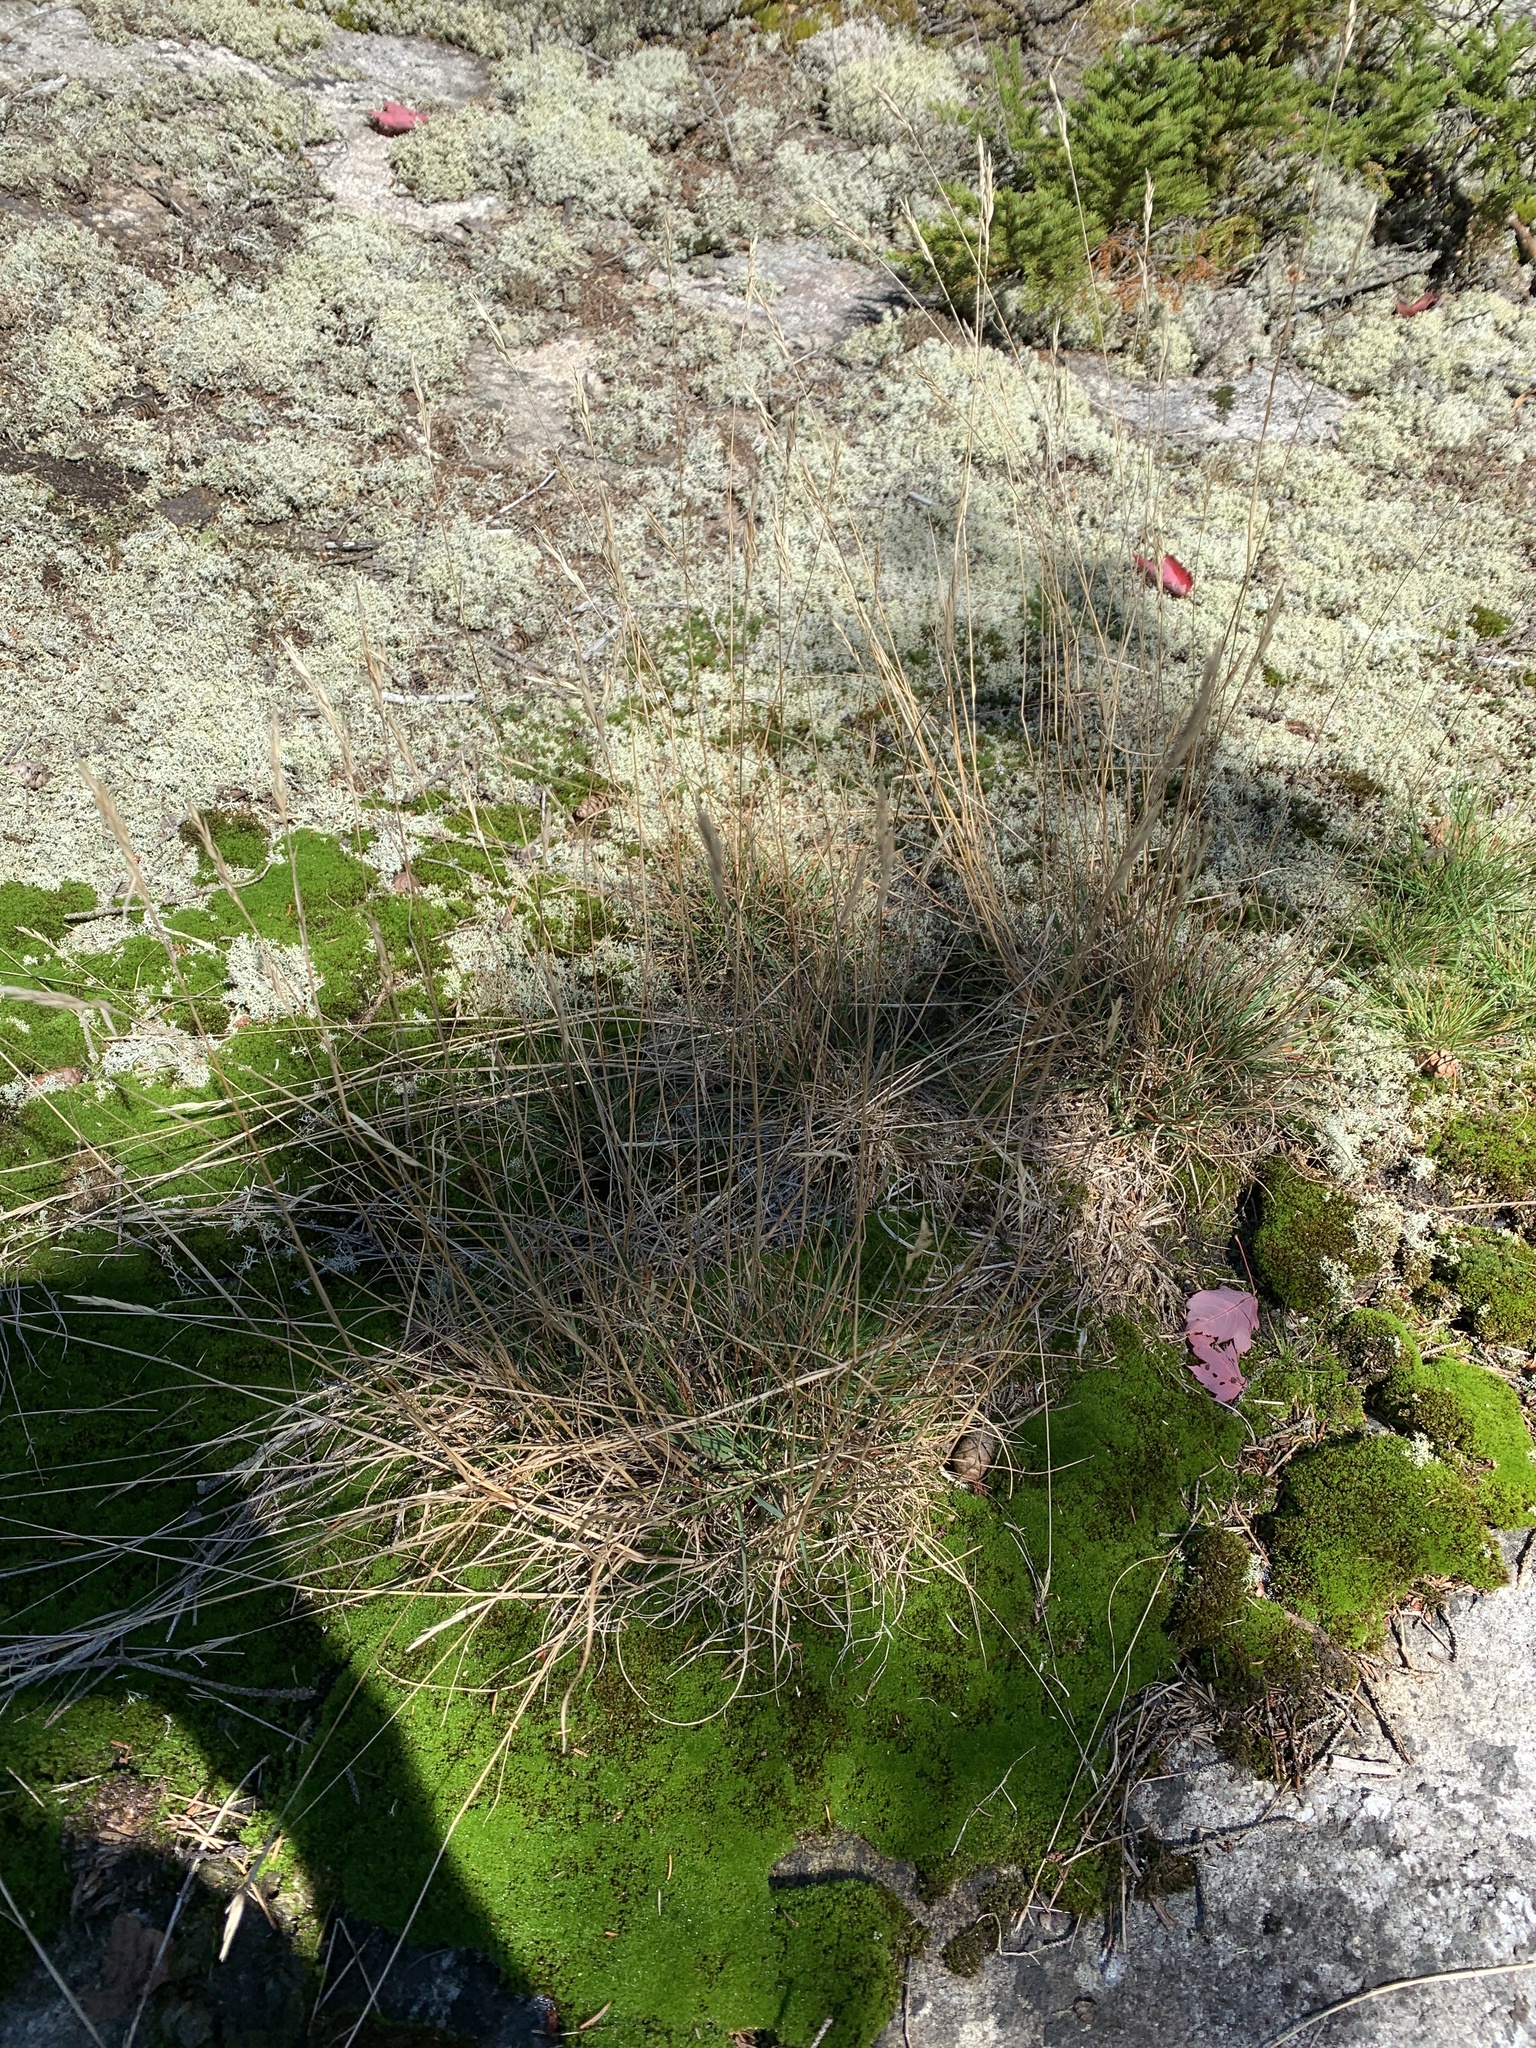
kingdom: Plantae
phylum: Tracheophyta
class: Liliopsida
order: Poales
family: Poaceae
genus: Danthonia
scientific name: Danthonia spicata
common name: Common wild oatgrass
